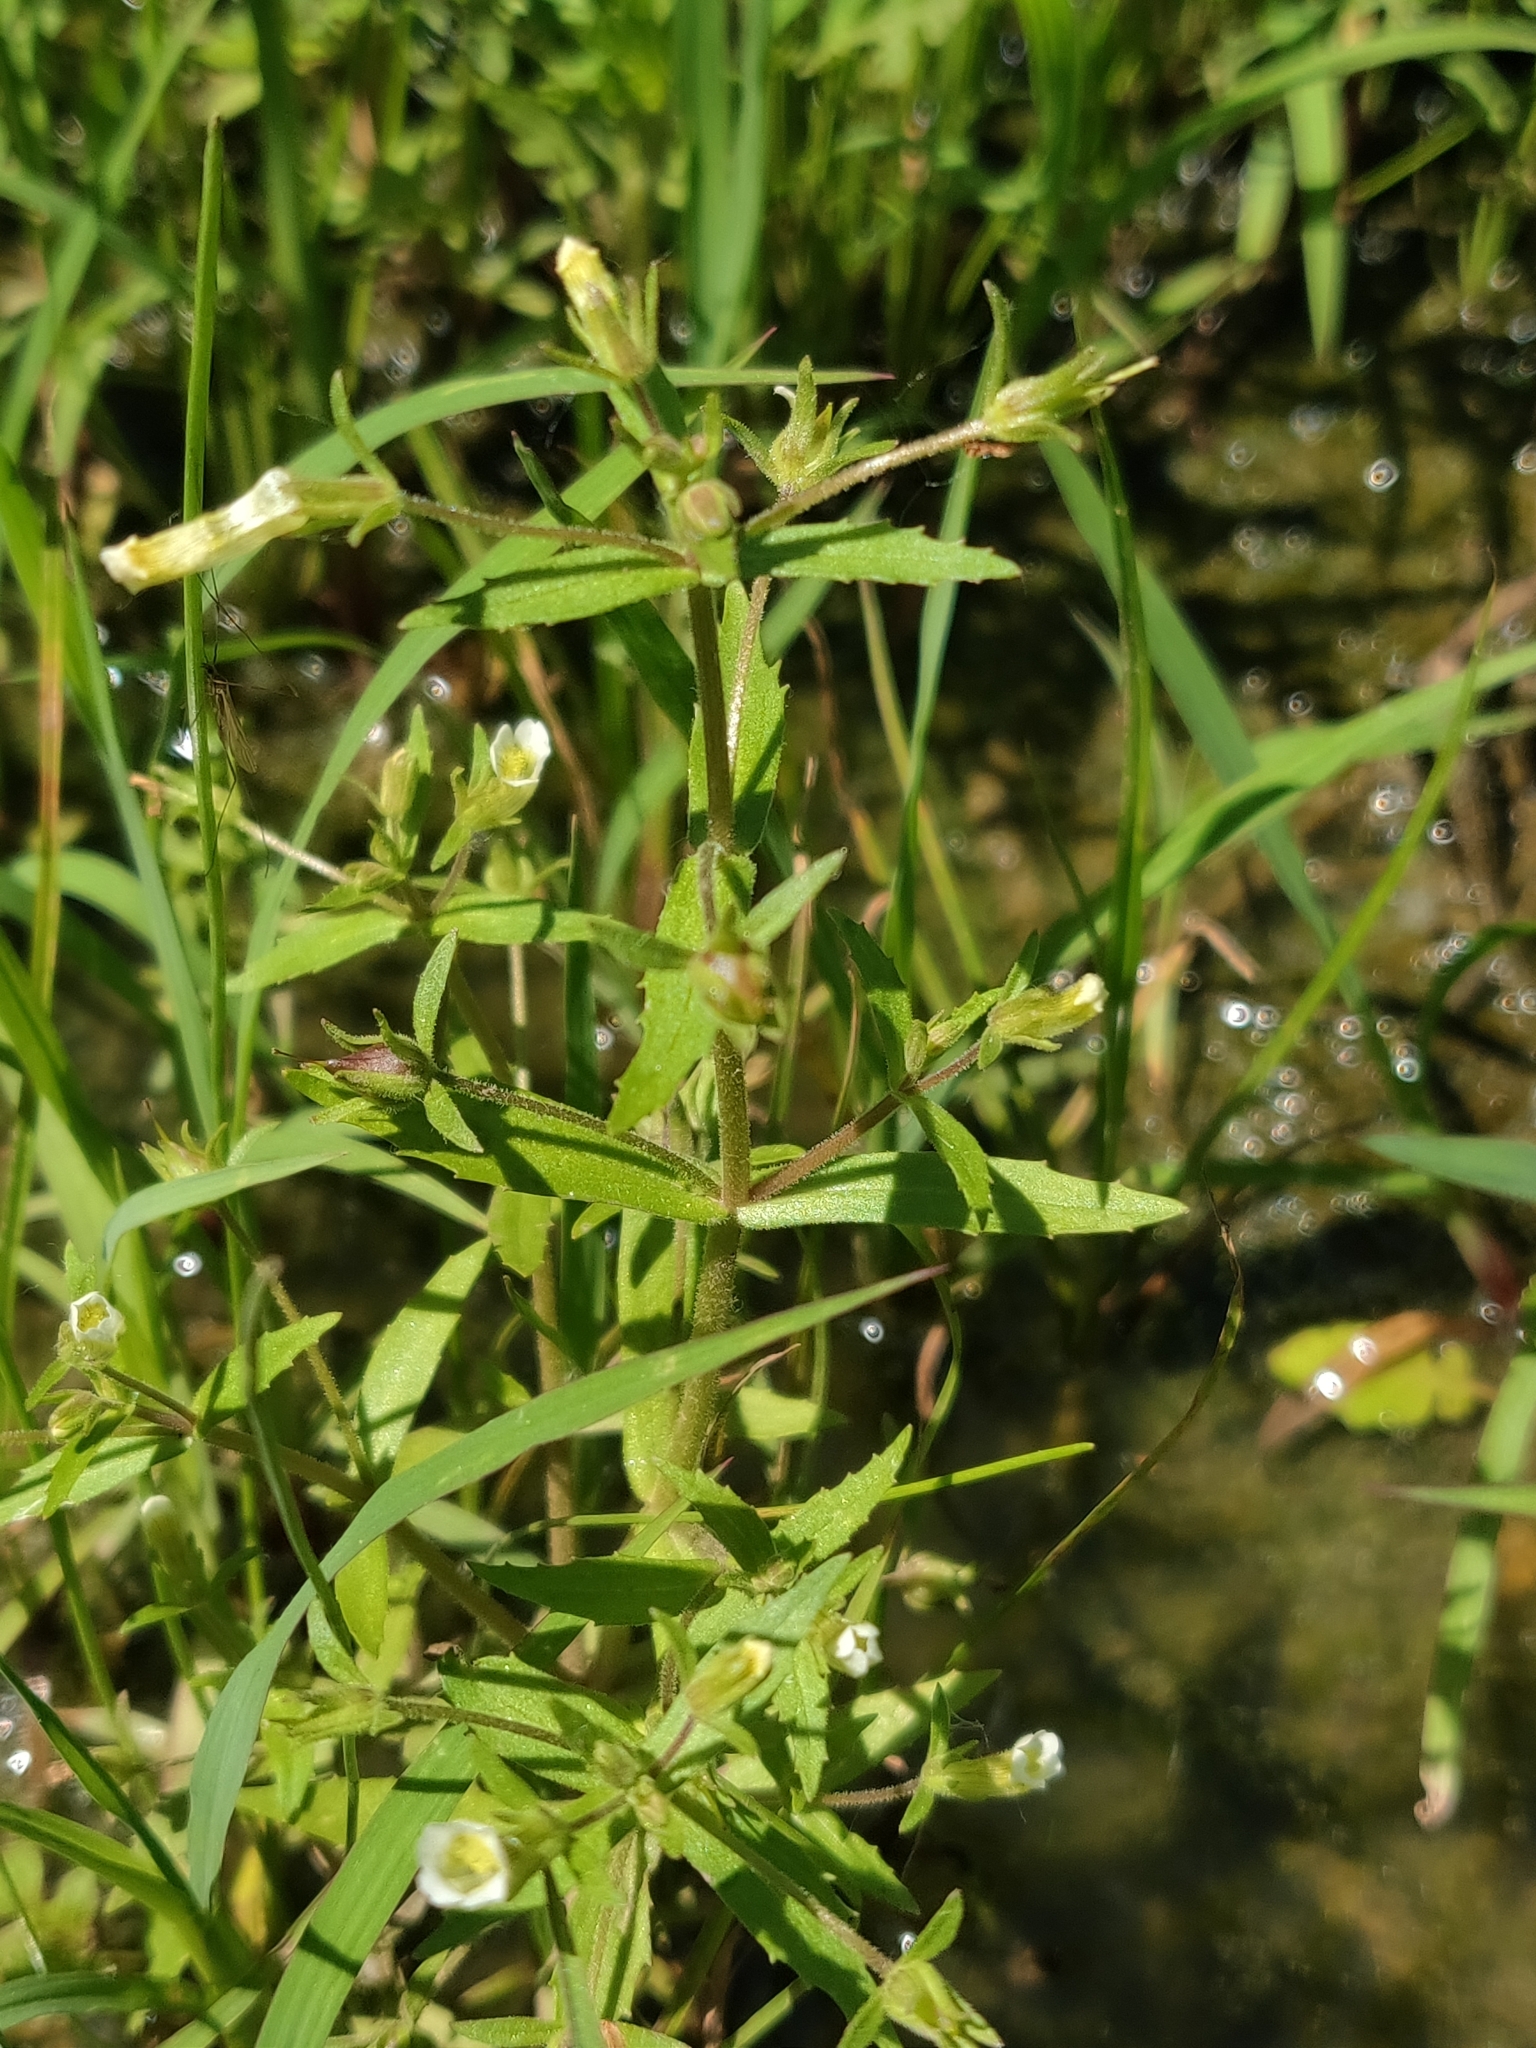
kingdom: Plantae
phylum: Tracheophyta
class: Magnoliopsida
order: Lamiales
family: Plantaginaceae
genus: Gratiola
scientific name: Gratiola neglecta
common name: American hedge-hyssop
